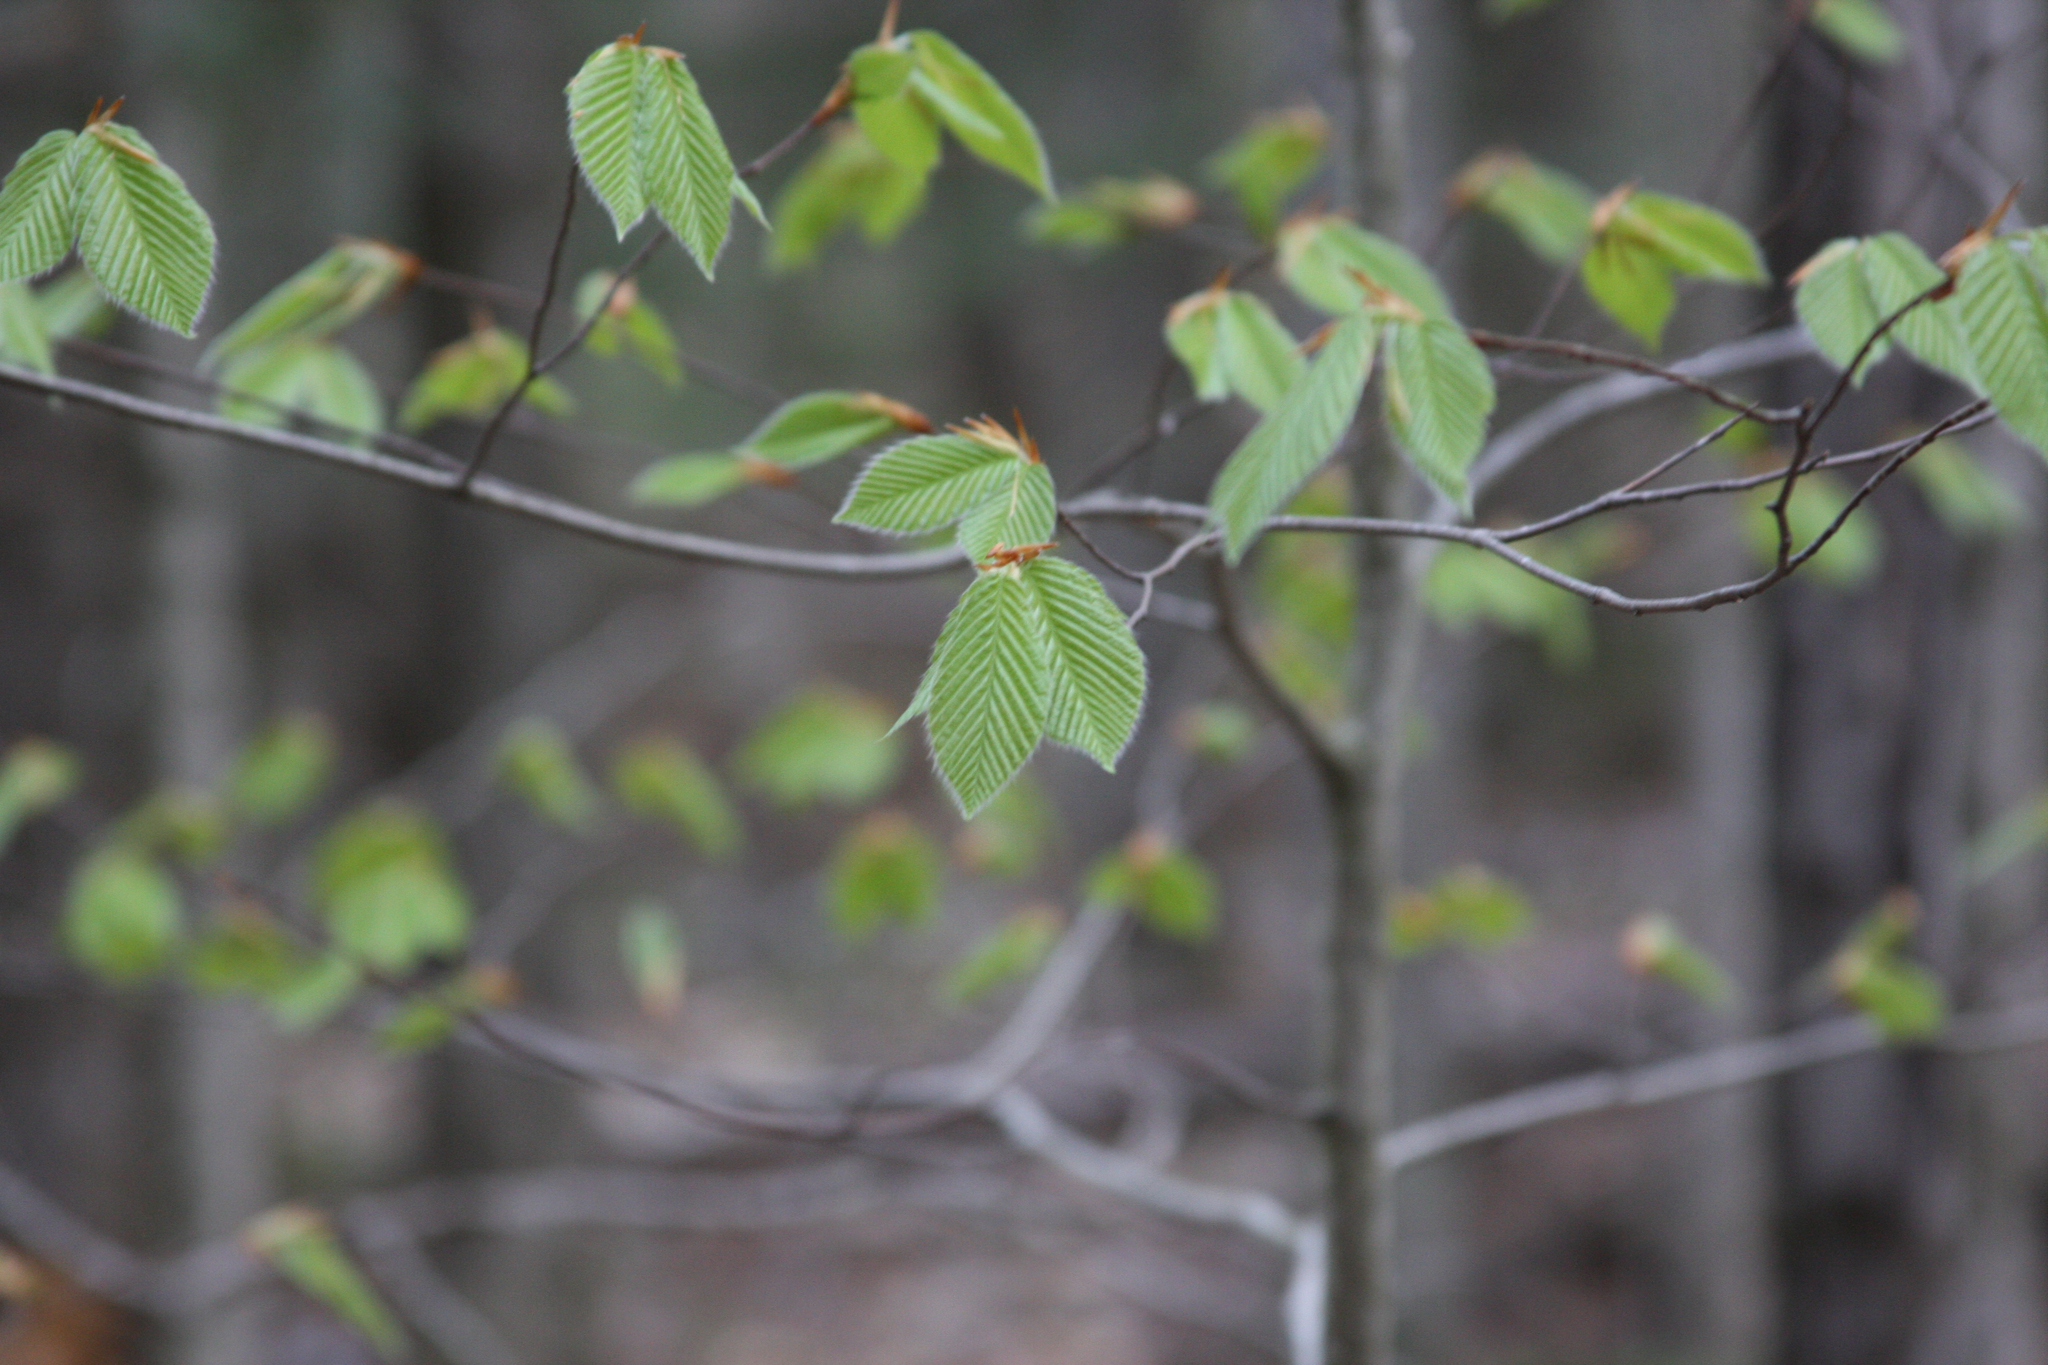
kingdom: Plantae
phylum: Tracheophyta
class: Magnoliopsida
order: Fagales
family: Fagaceae
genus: Fagus
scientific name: Fagus grandifolia
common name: American beech
